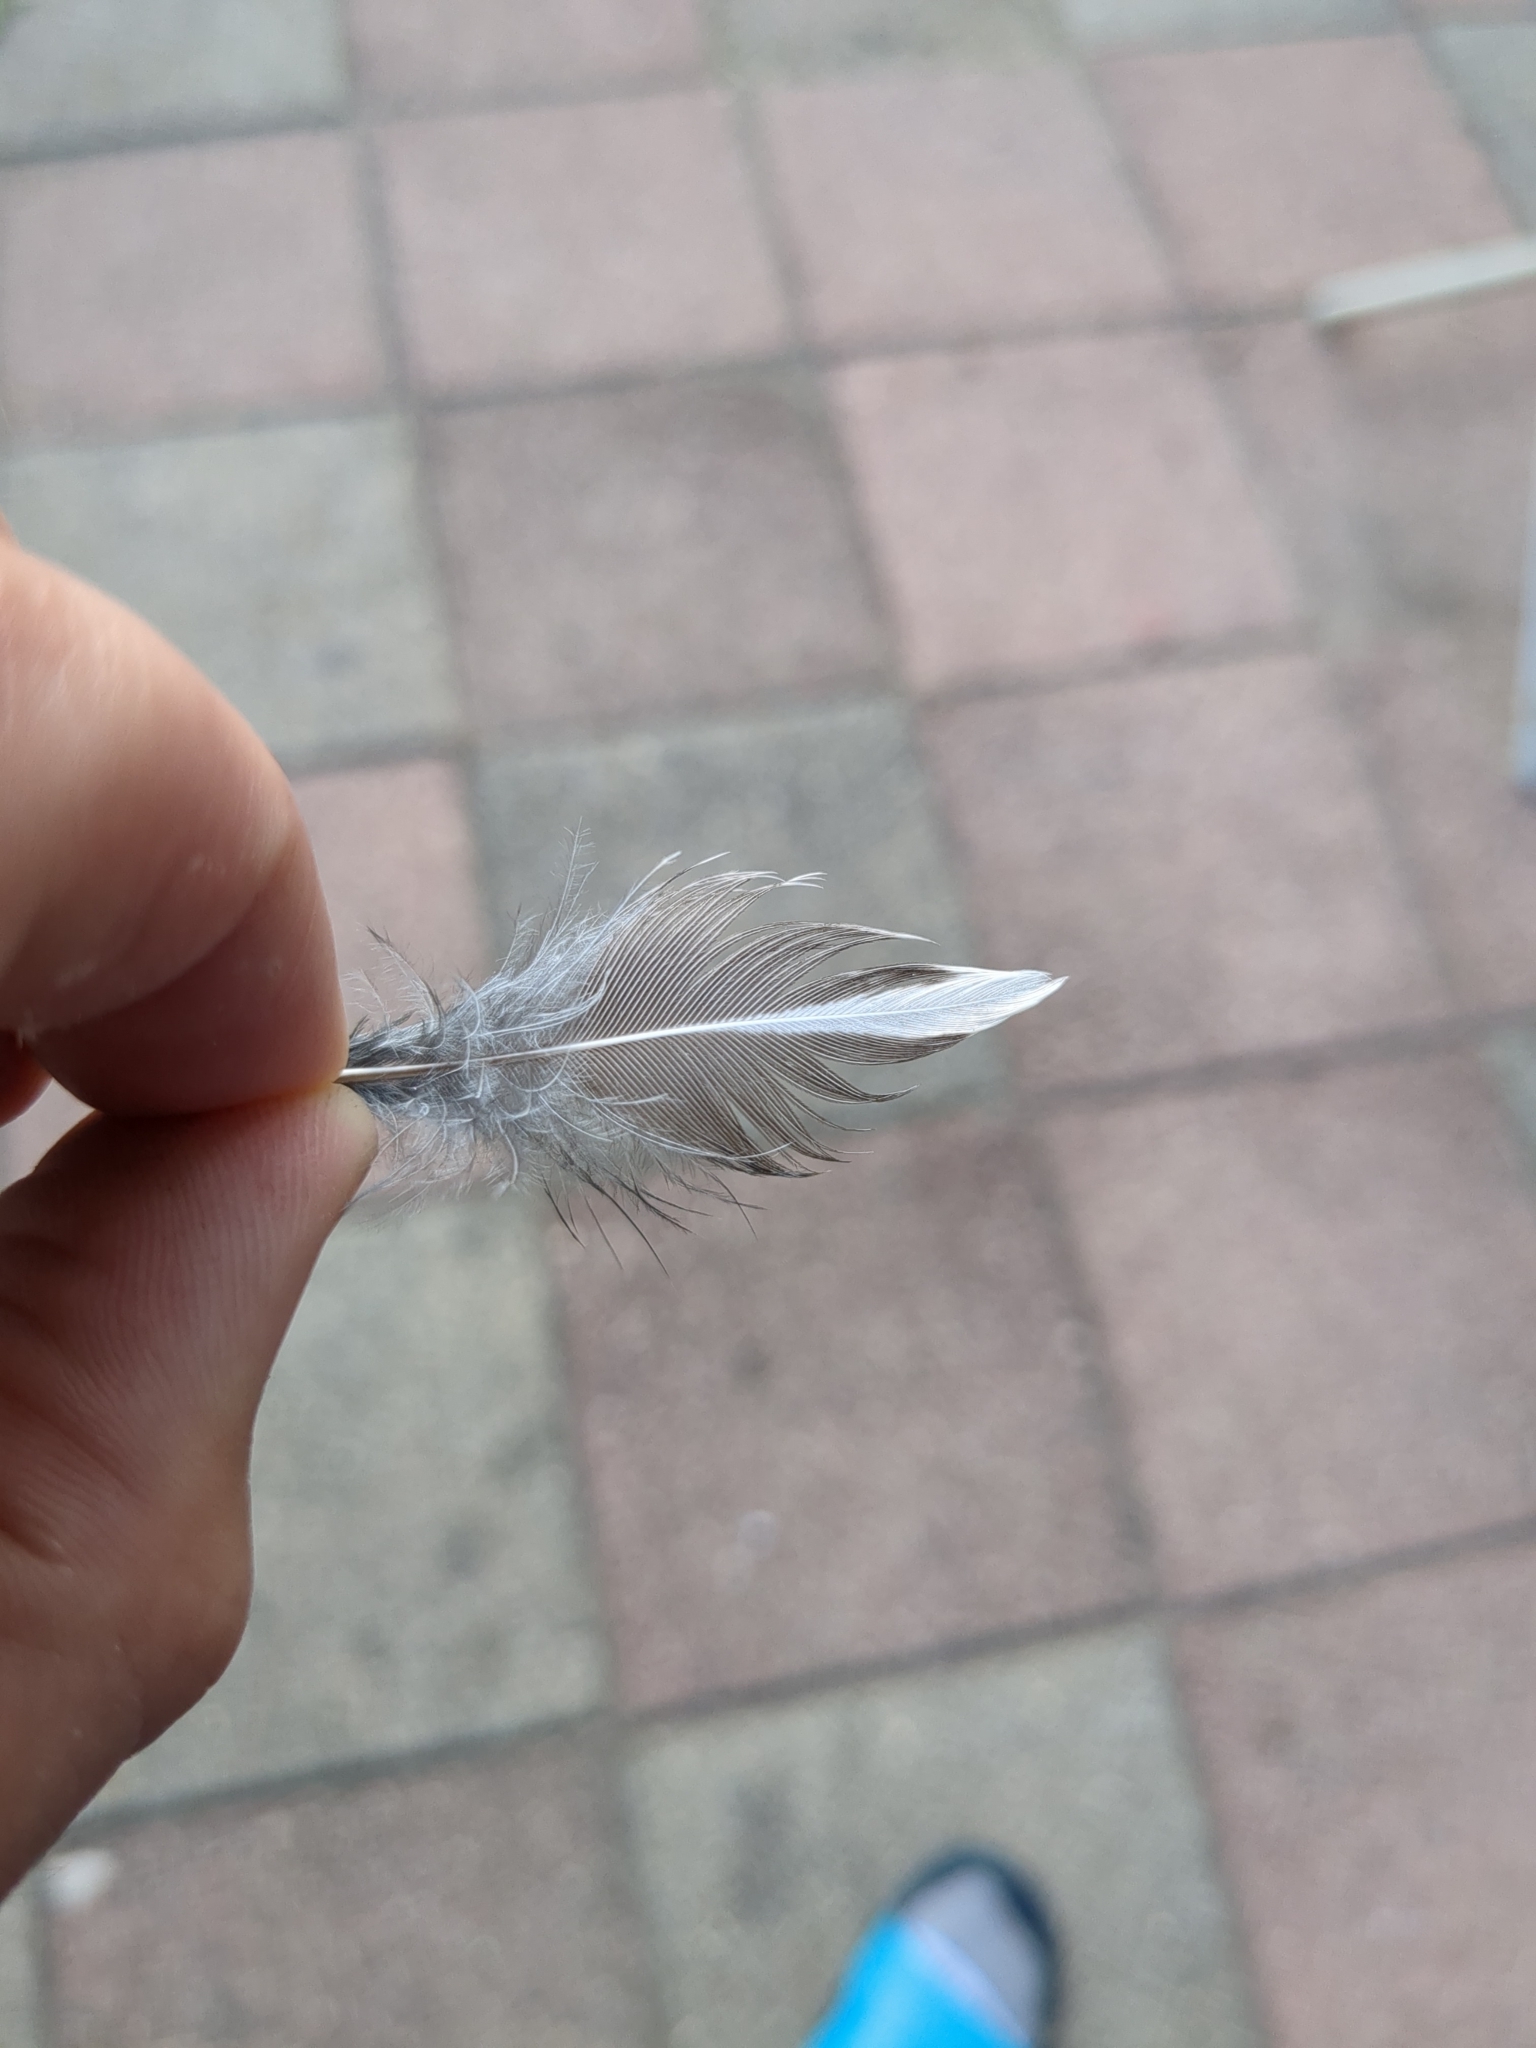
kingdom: Animalia
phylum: Chordata
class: Aves
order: Passeriformes
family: Turdidae
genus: Turdus
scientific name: Turdus migratorius
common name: American robin
